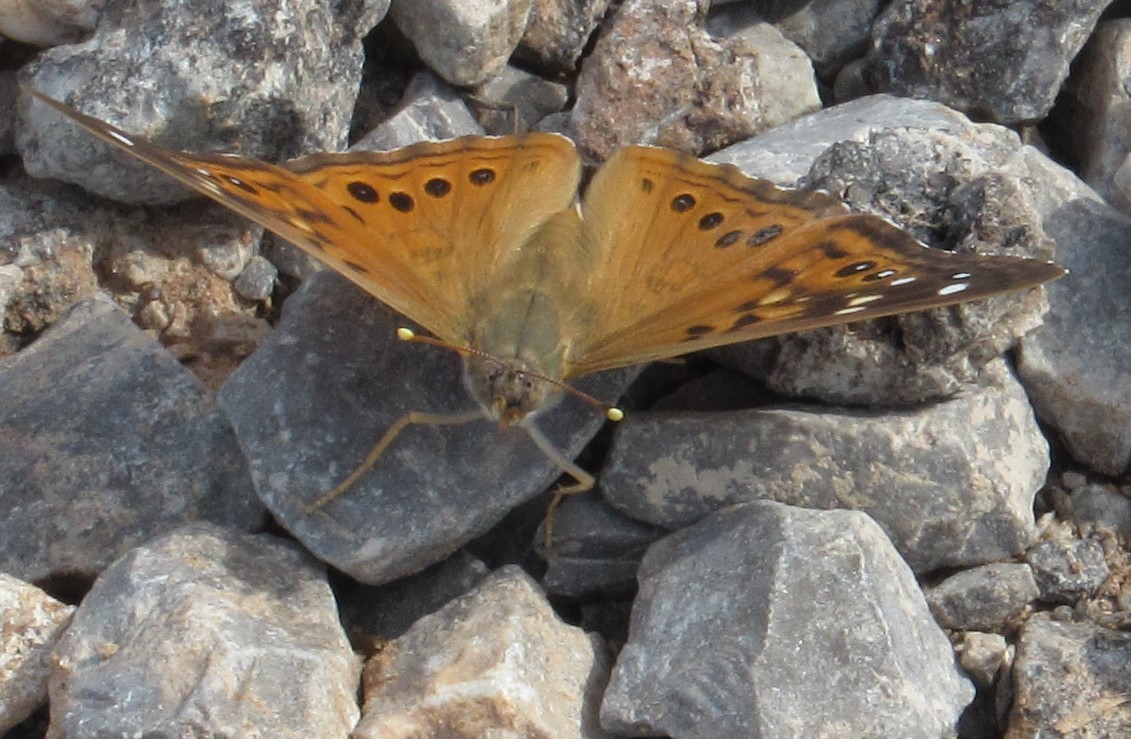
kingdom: Animalia
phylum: Arthropoda
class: Insecta
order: Lepidoptera
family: Nymphalidae
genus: Asterocampa
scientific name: Asterocampa celtis
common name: Hackberry emperor
